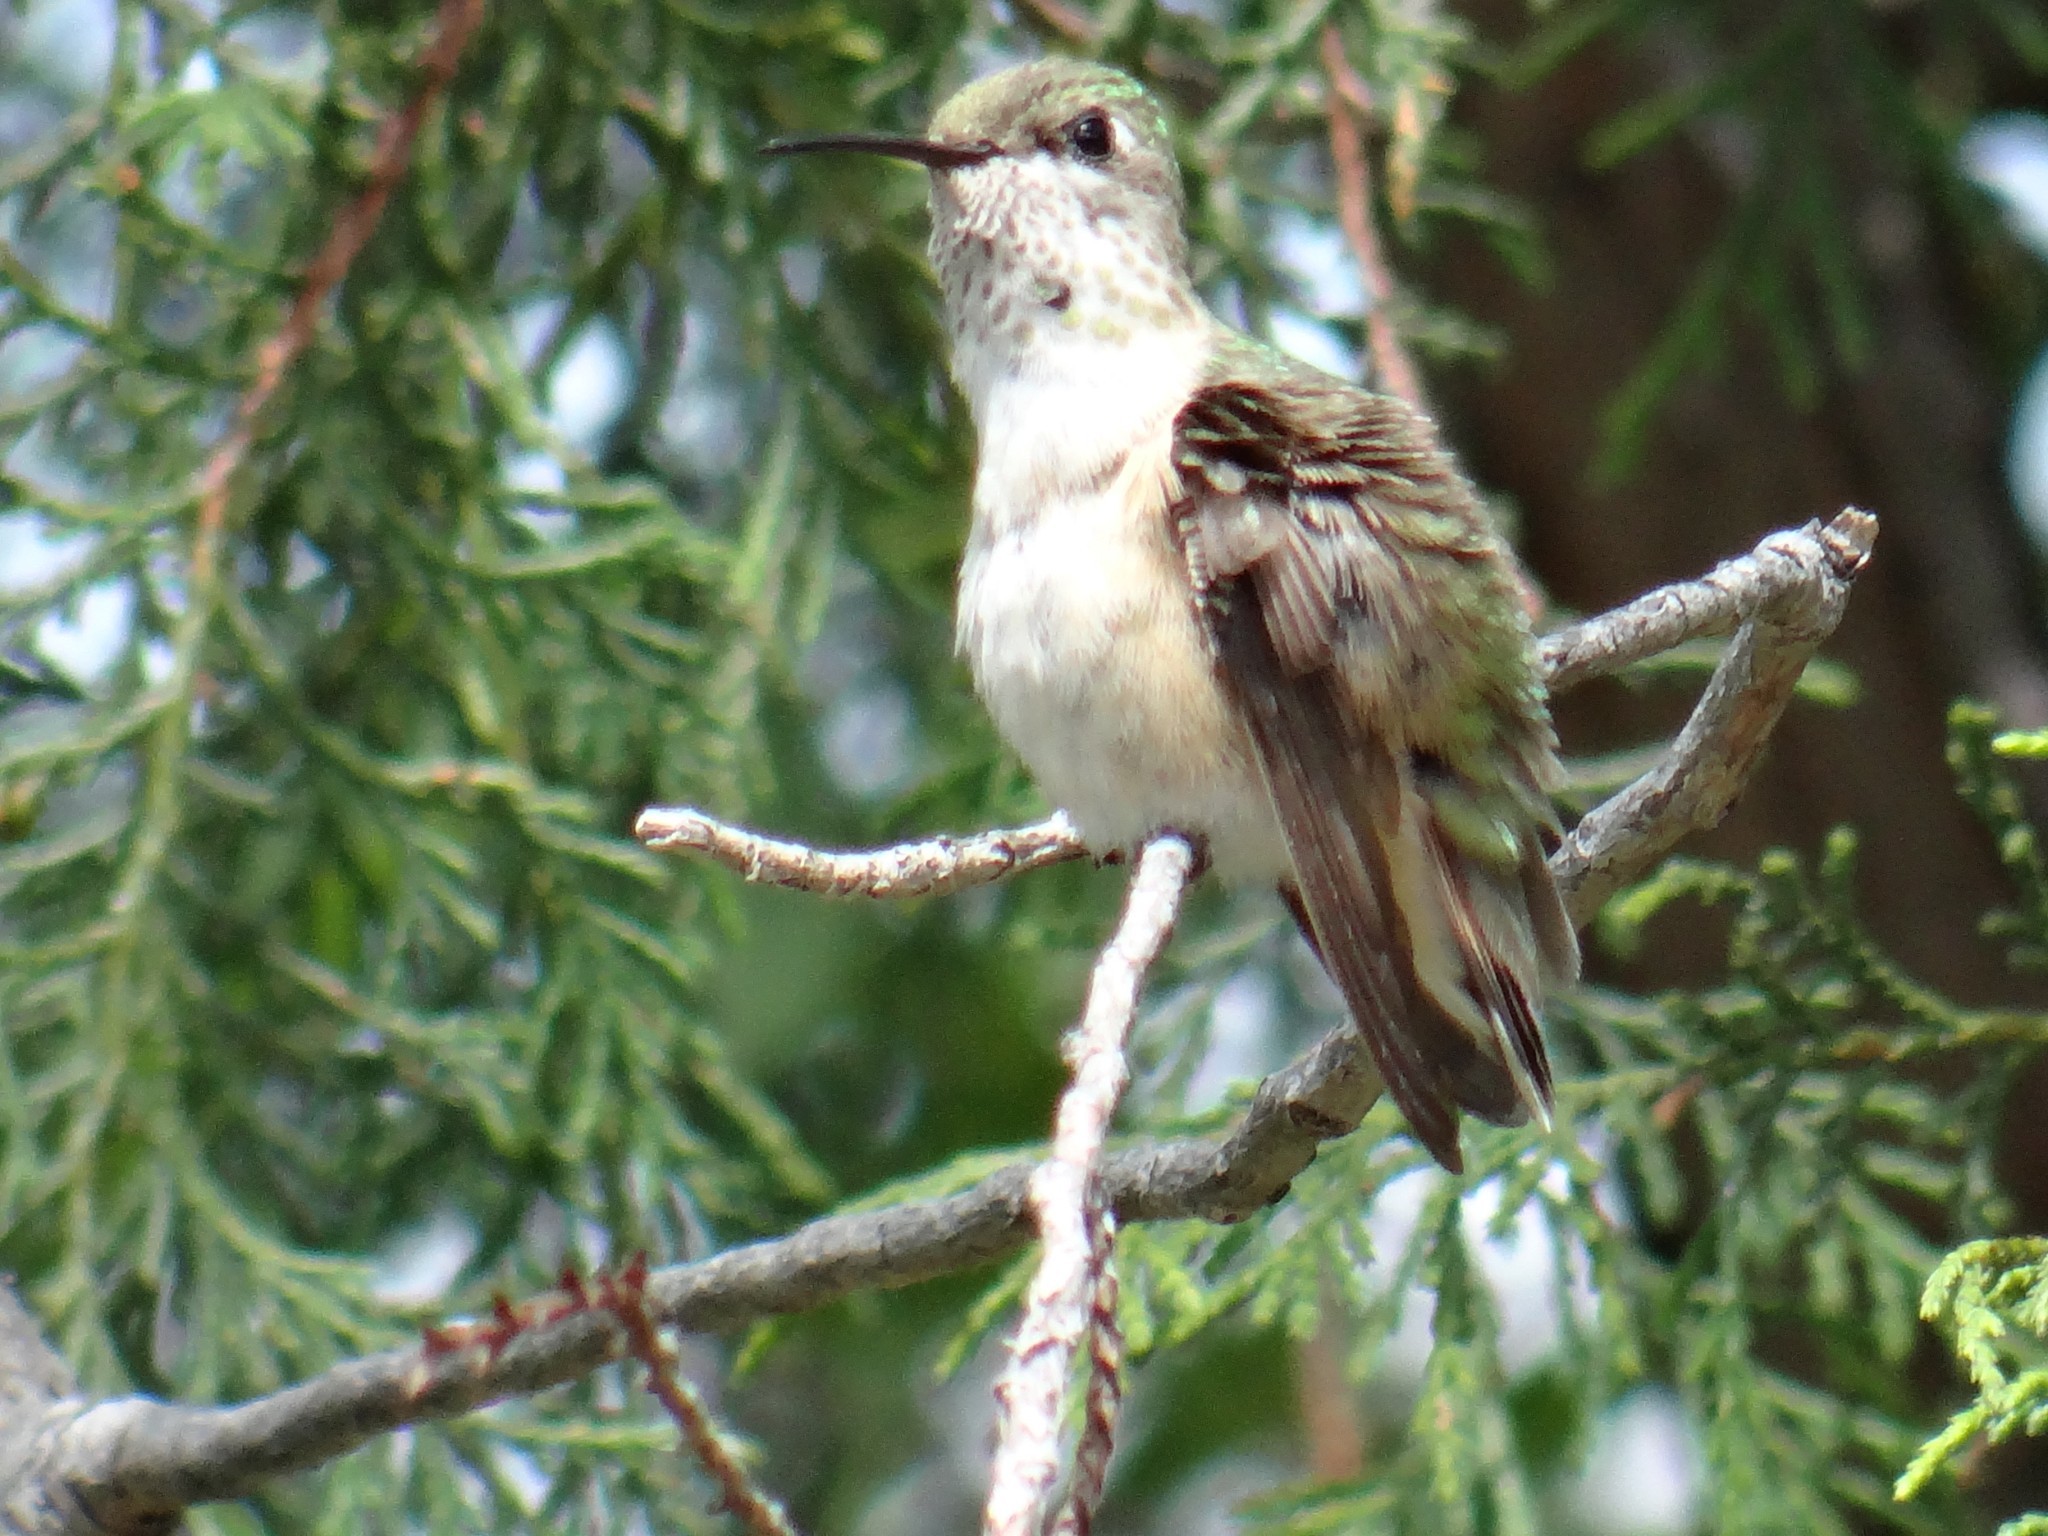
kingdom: Animalia
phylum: Chordata
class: Aves
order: Apodiformes
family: Trochilidae
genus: Selasphorus
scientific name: Selasphorus calliope
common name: Calliope hummingbird
